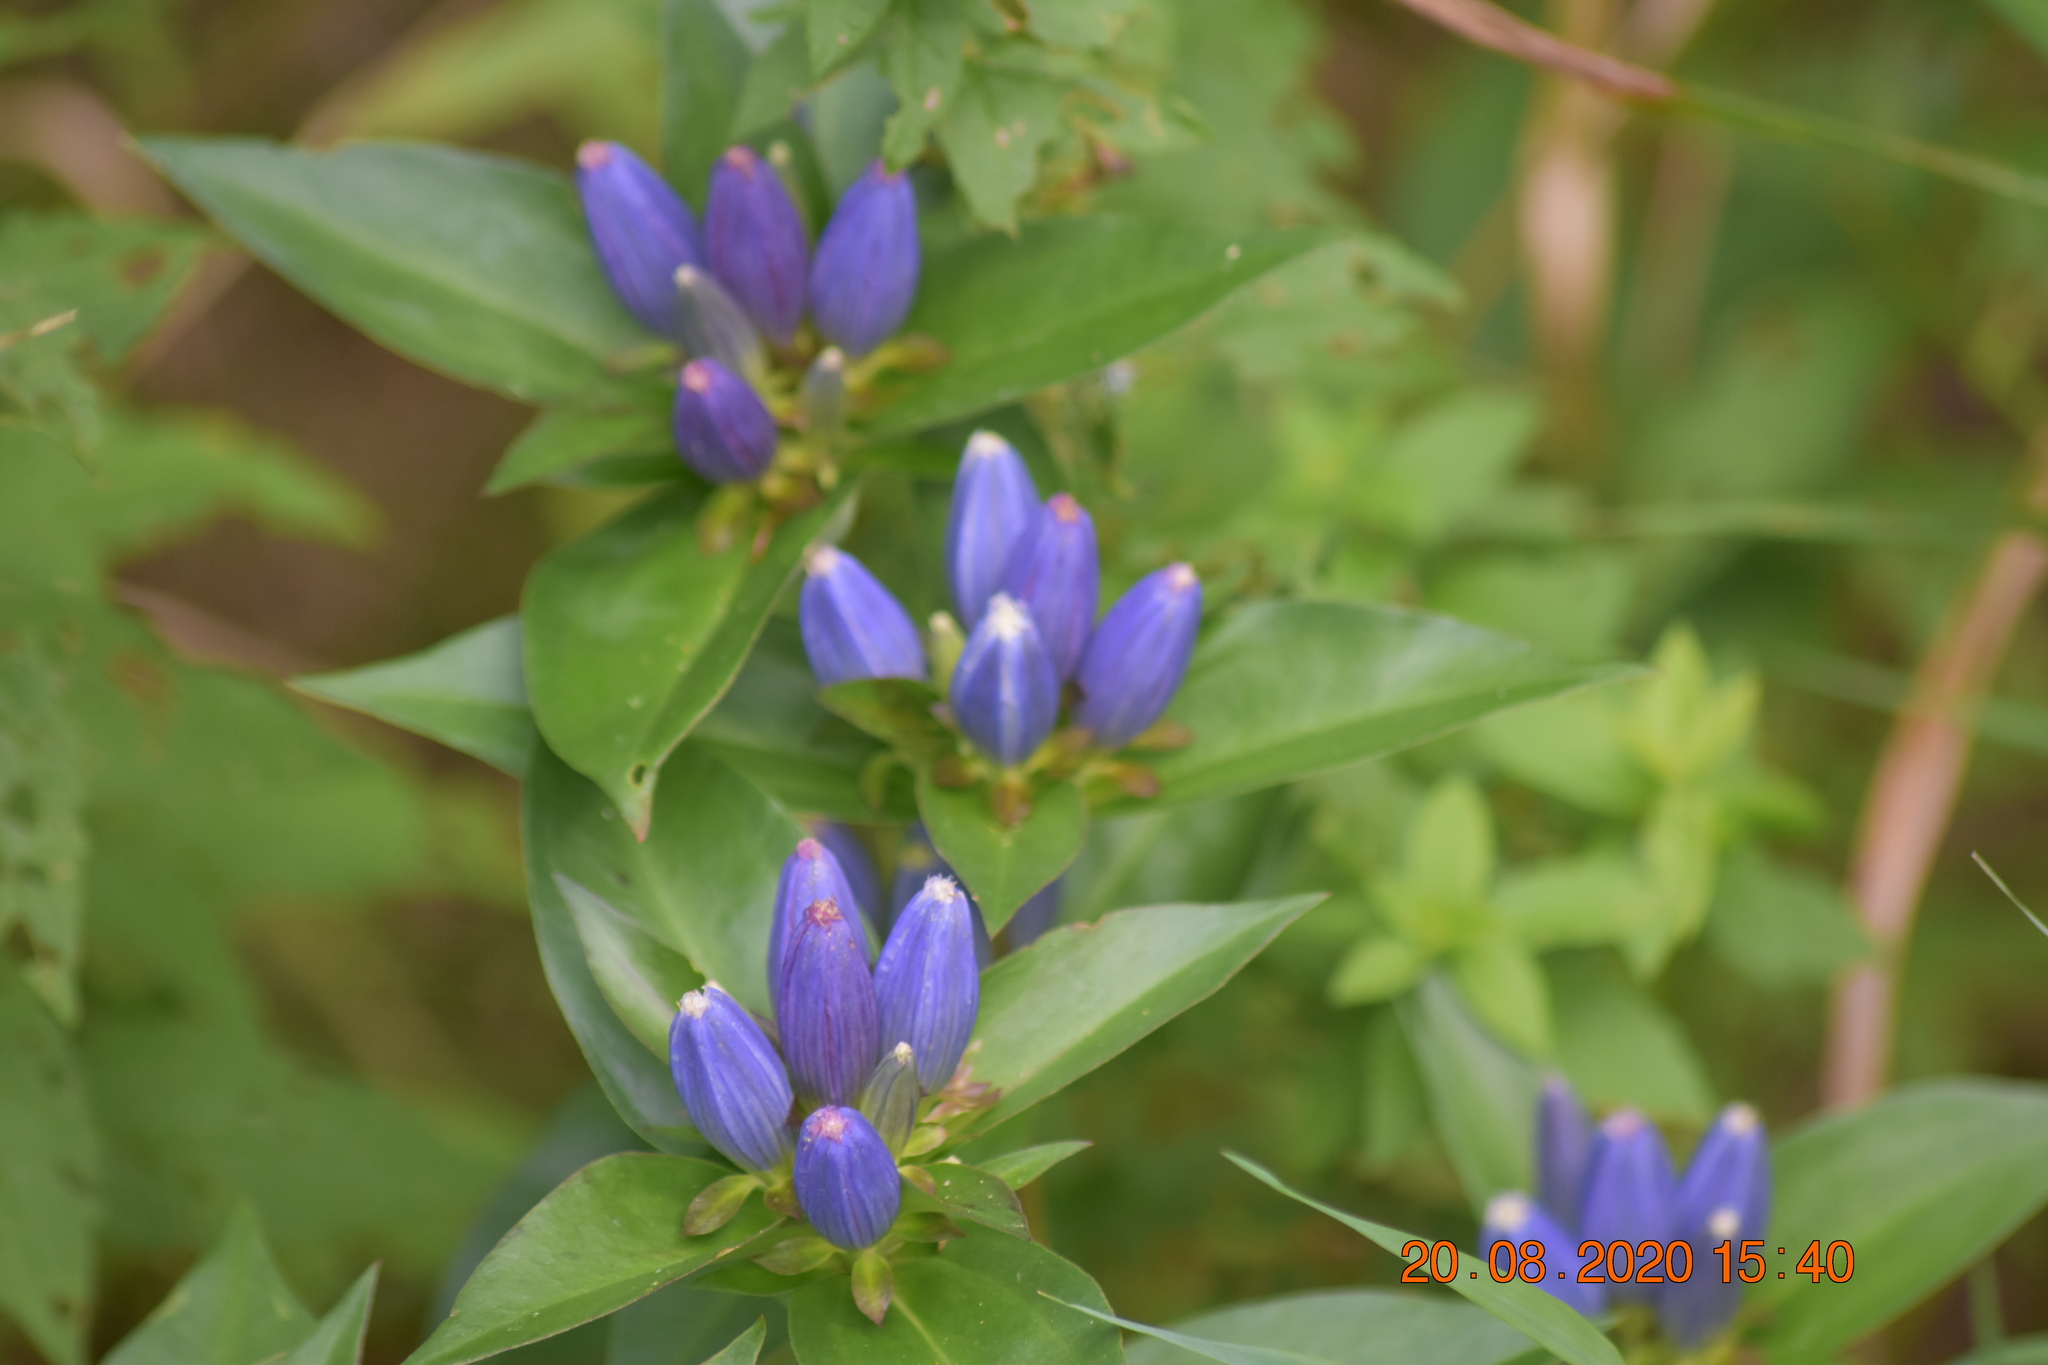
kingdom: Plantae
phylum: Tracheophyta
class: Magnoliopsida
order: Gentianales
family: Gentianaceae
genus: Gentiana
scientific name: Gentiana andrewsii
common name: Bottle gentian
